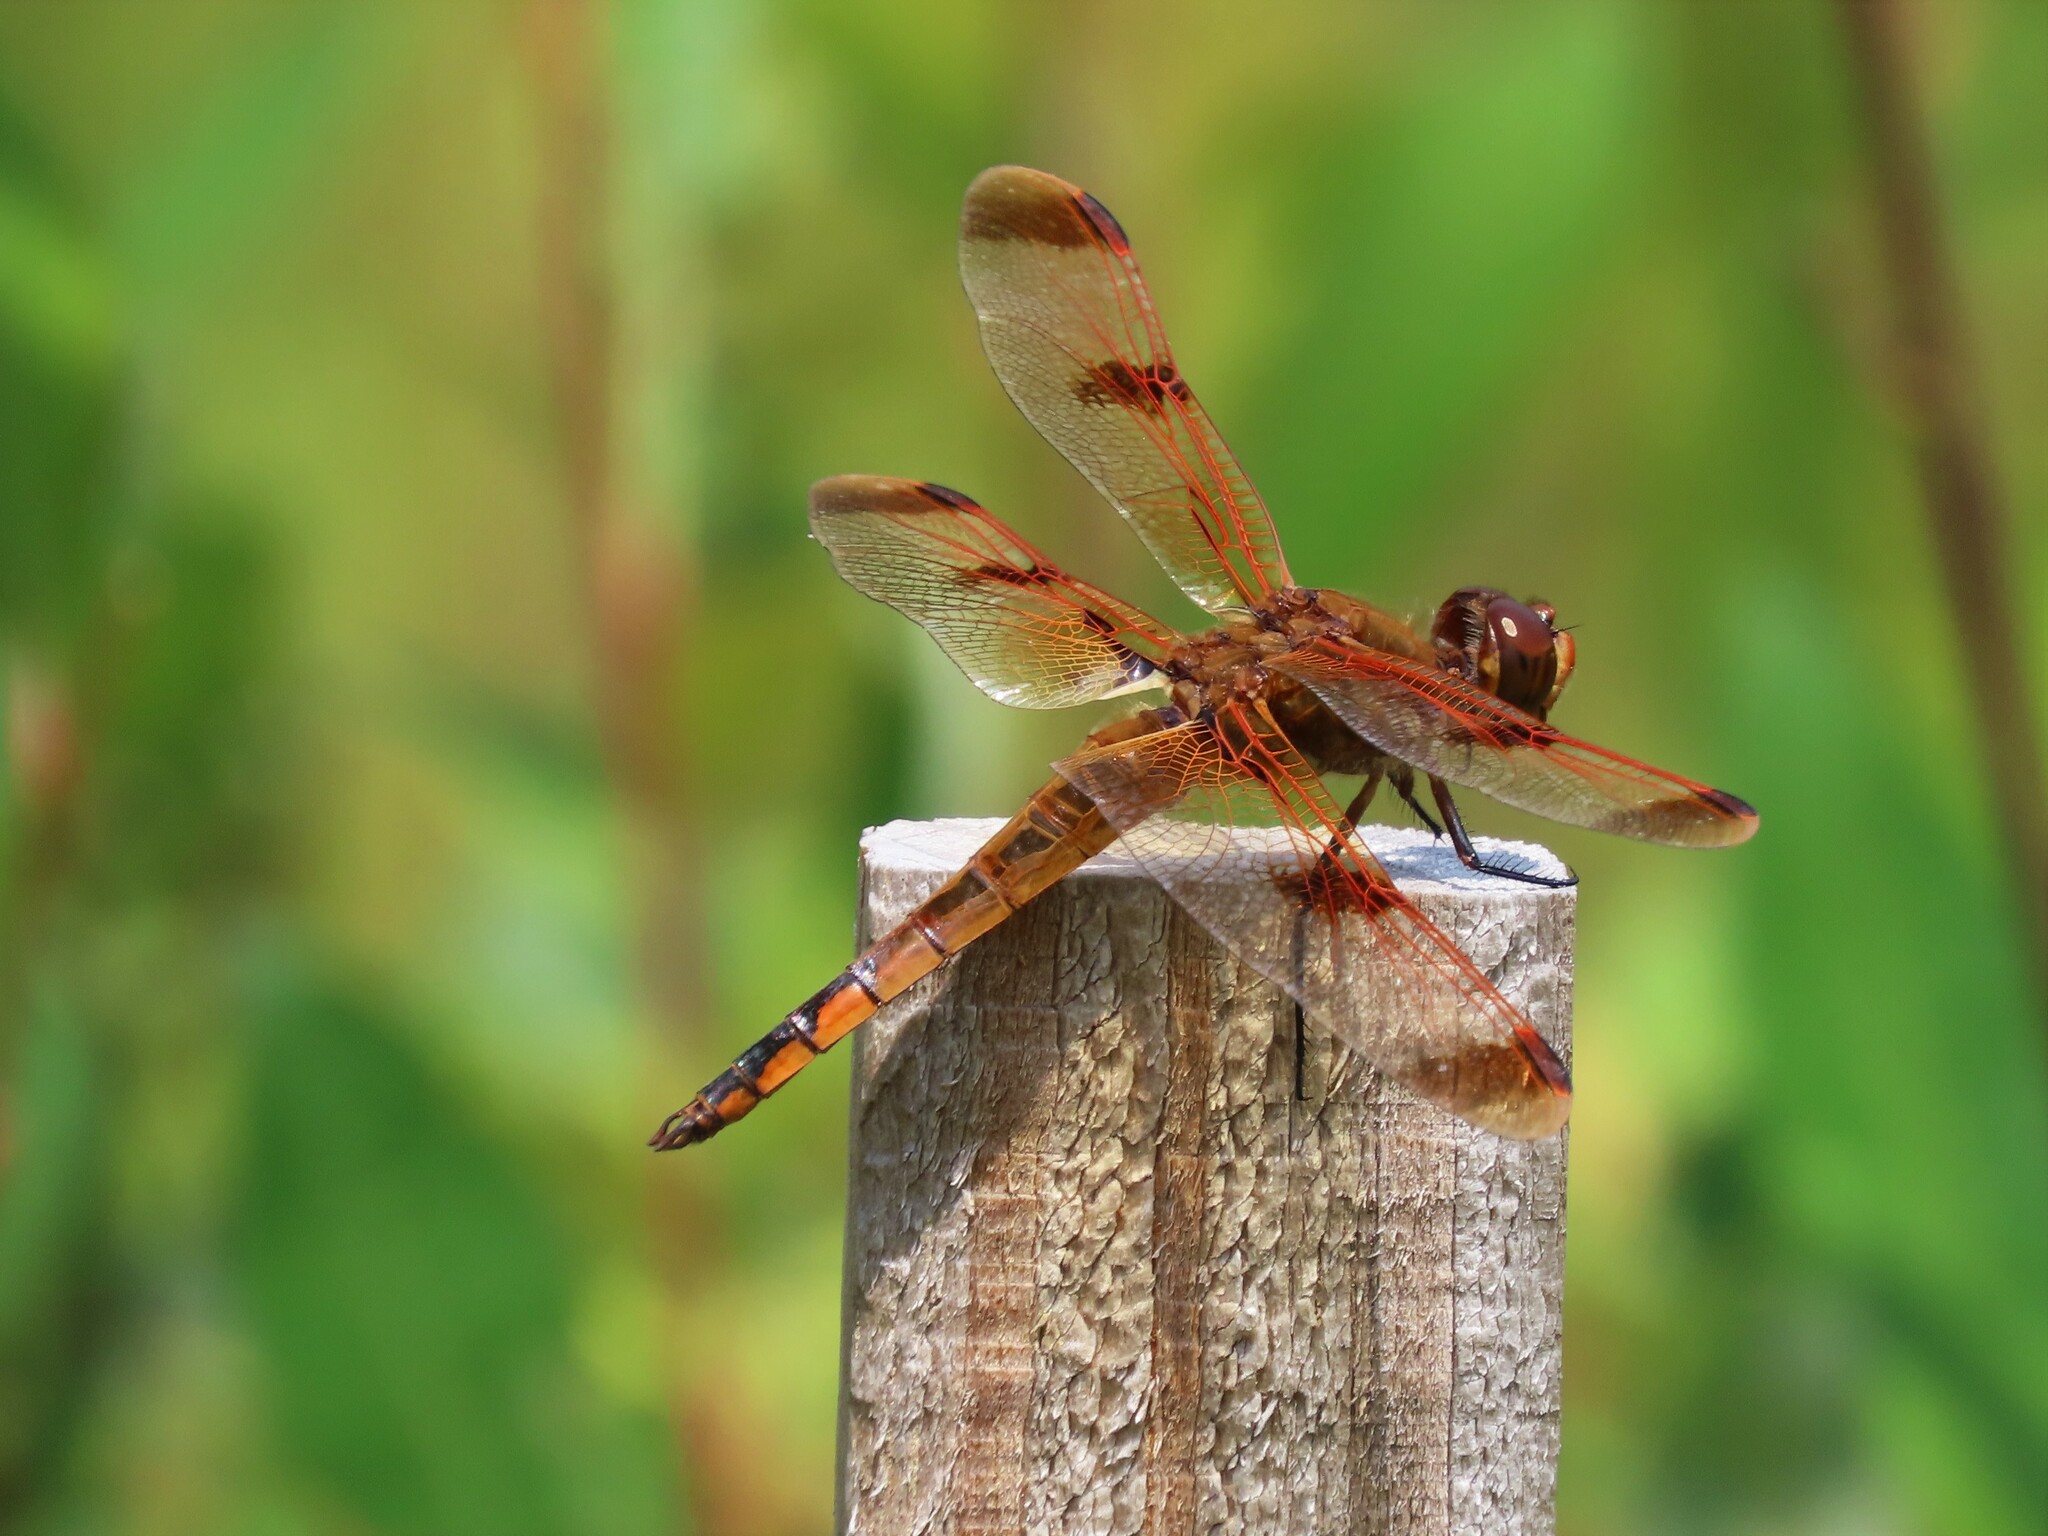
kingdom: Animalia
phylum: Arthropoda
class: Insecta
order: Odonata
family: Libellulidae
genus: Libellula
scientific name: Libellula semifasciata
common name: Painted skimmer
